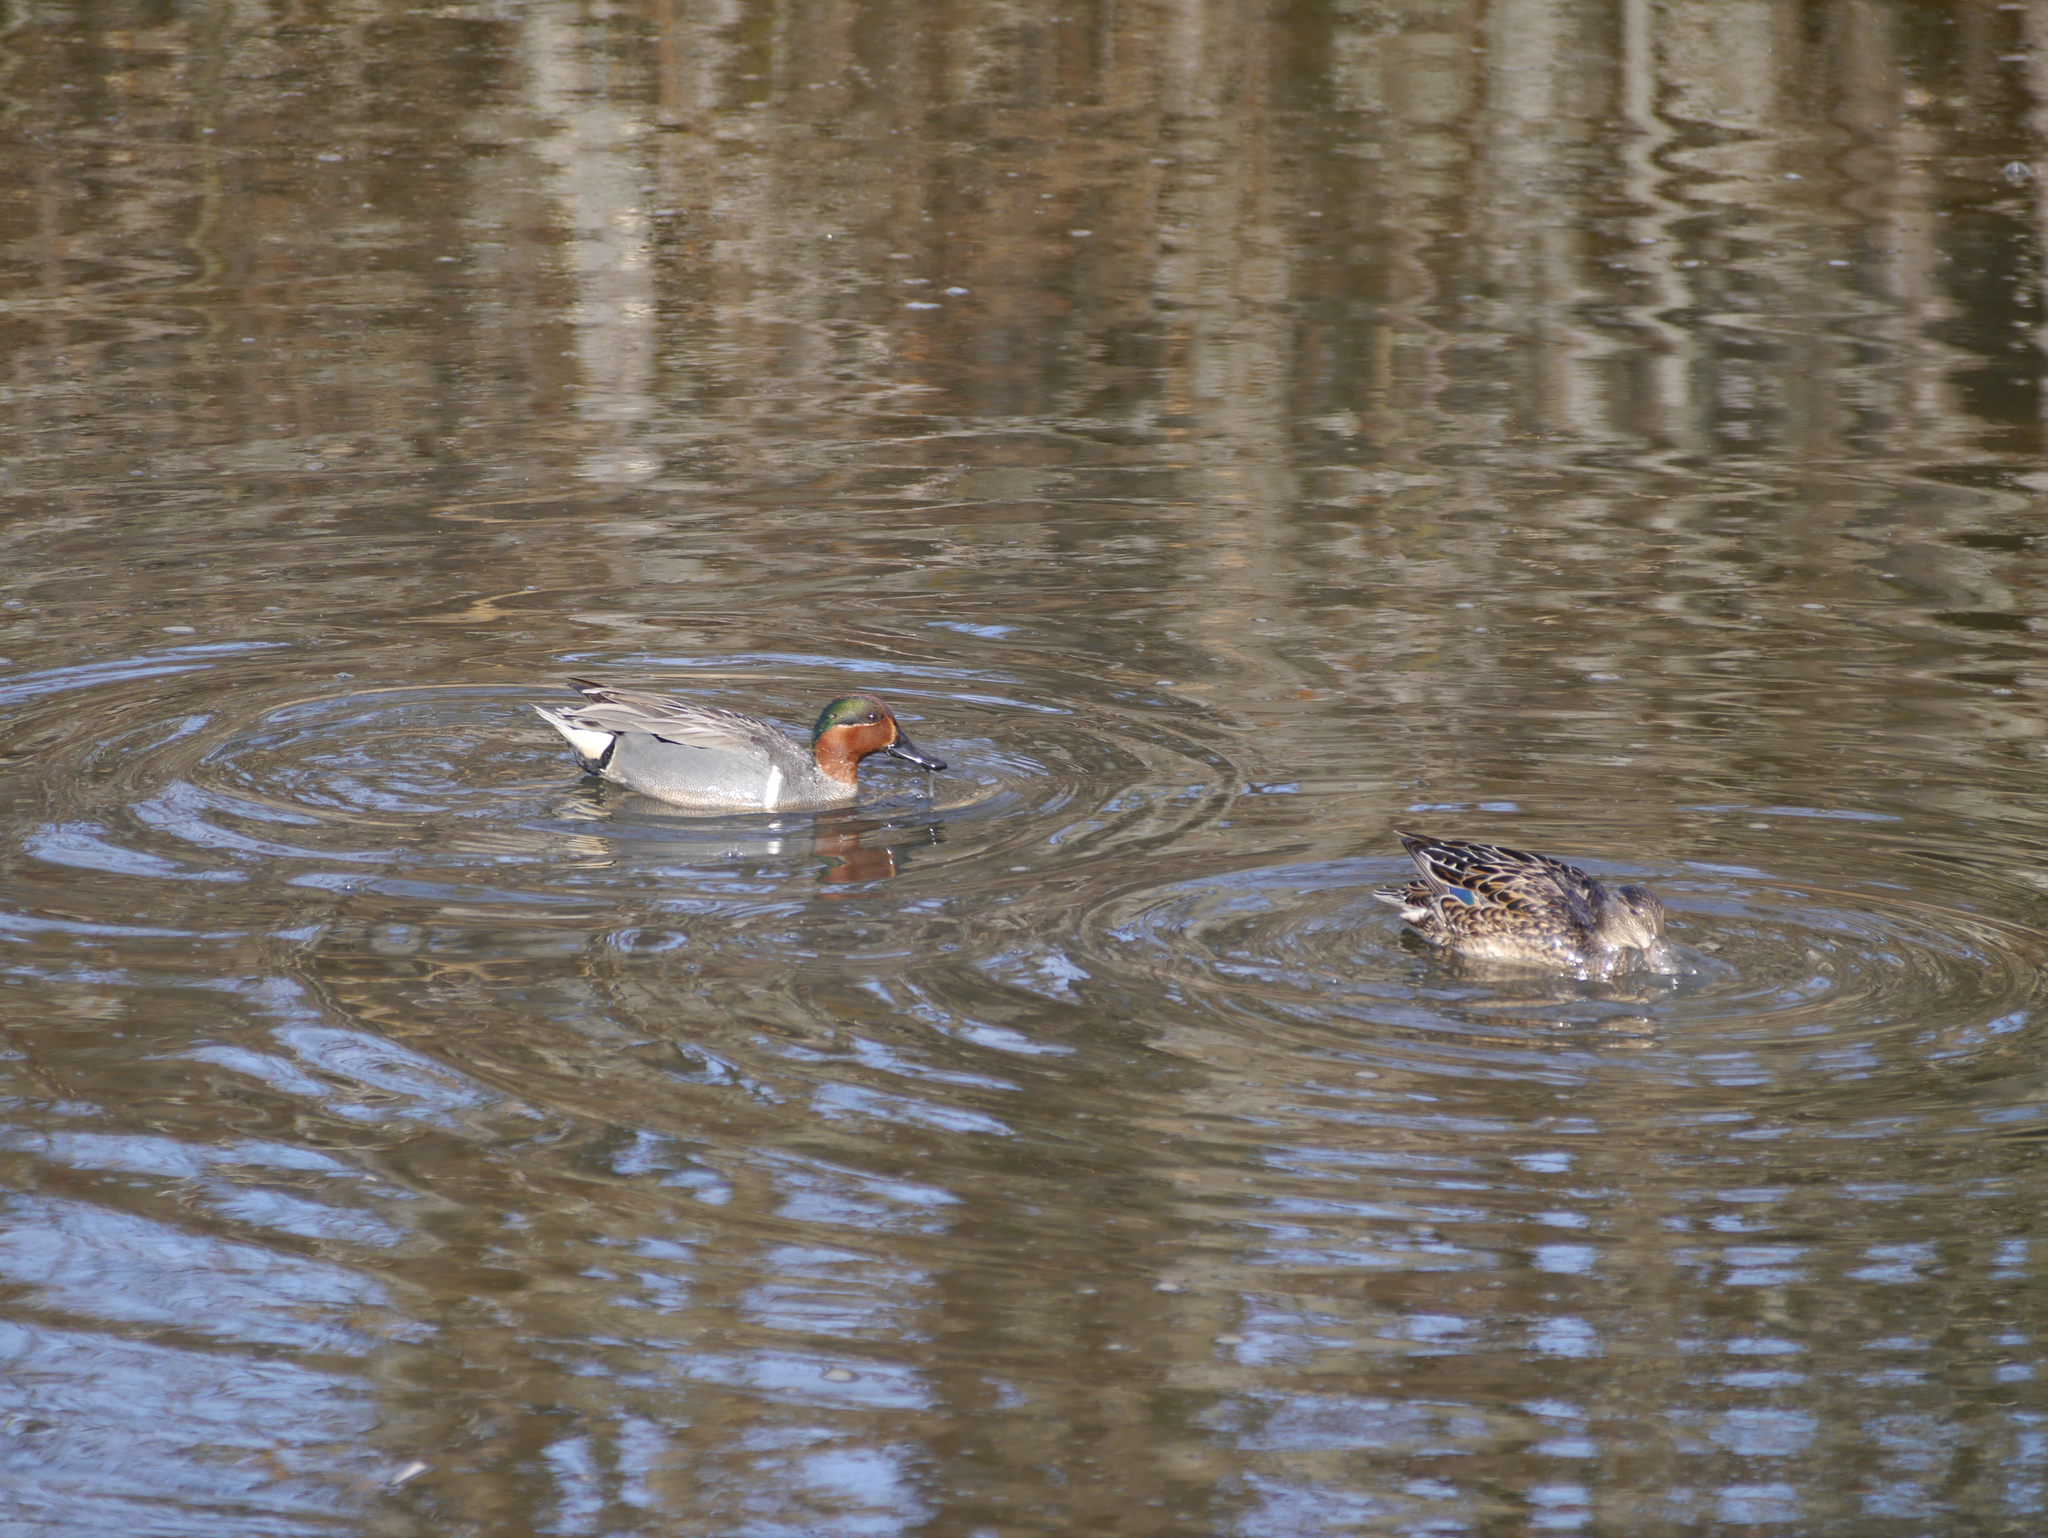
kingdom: Animalia
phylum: Chordata
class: Aves
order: Anseriformes
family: Anatidae
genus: Anas
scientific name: Anas crecca
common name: Eurasian teal
